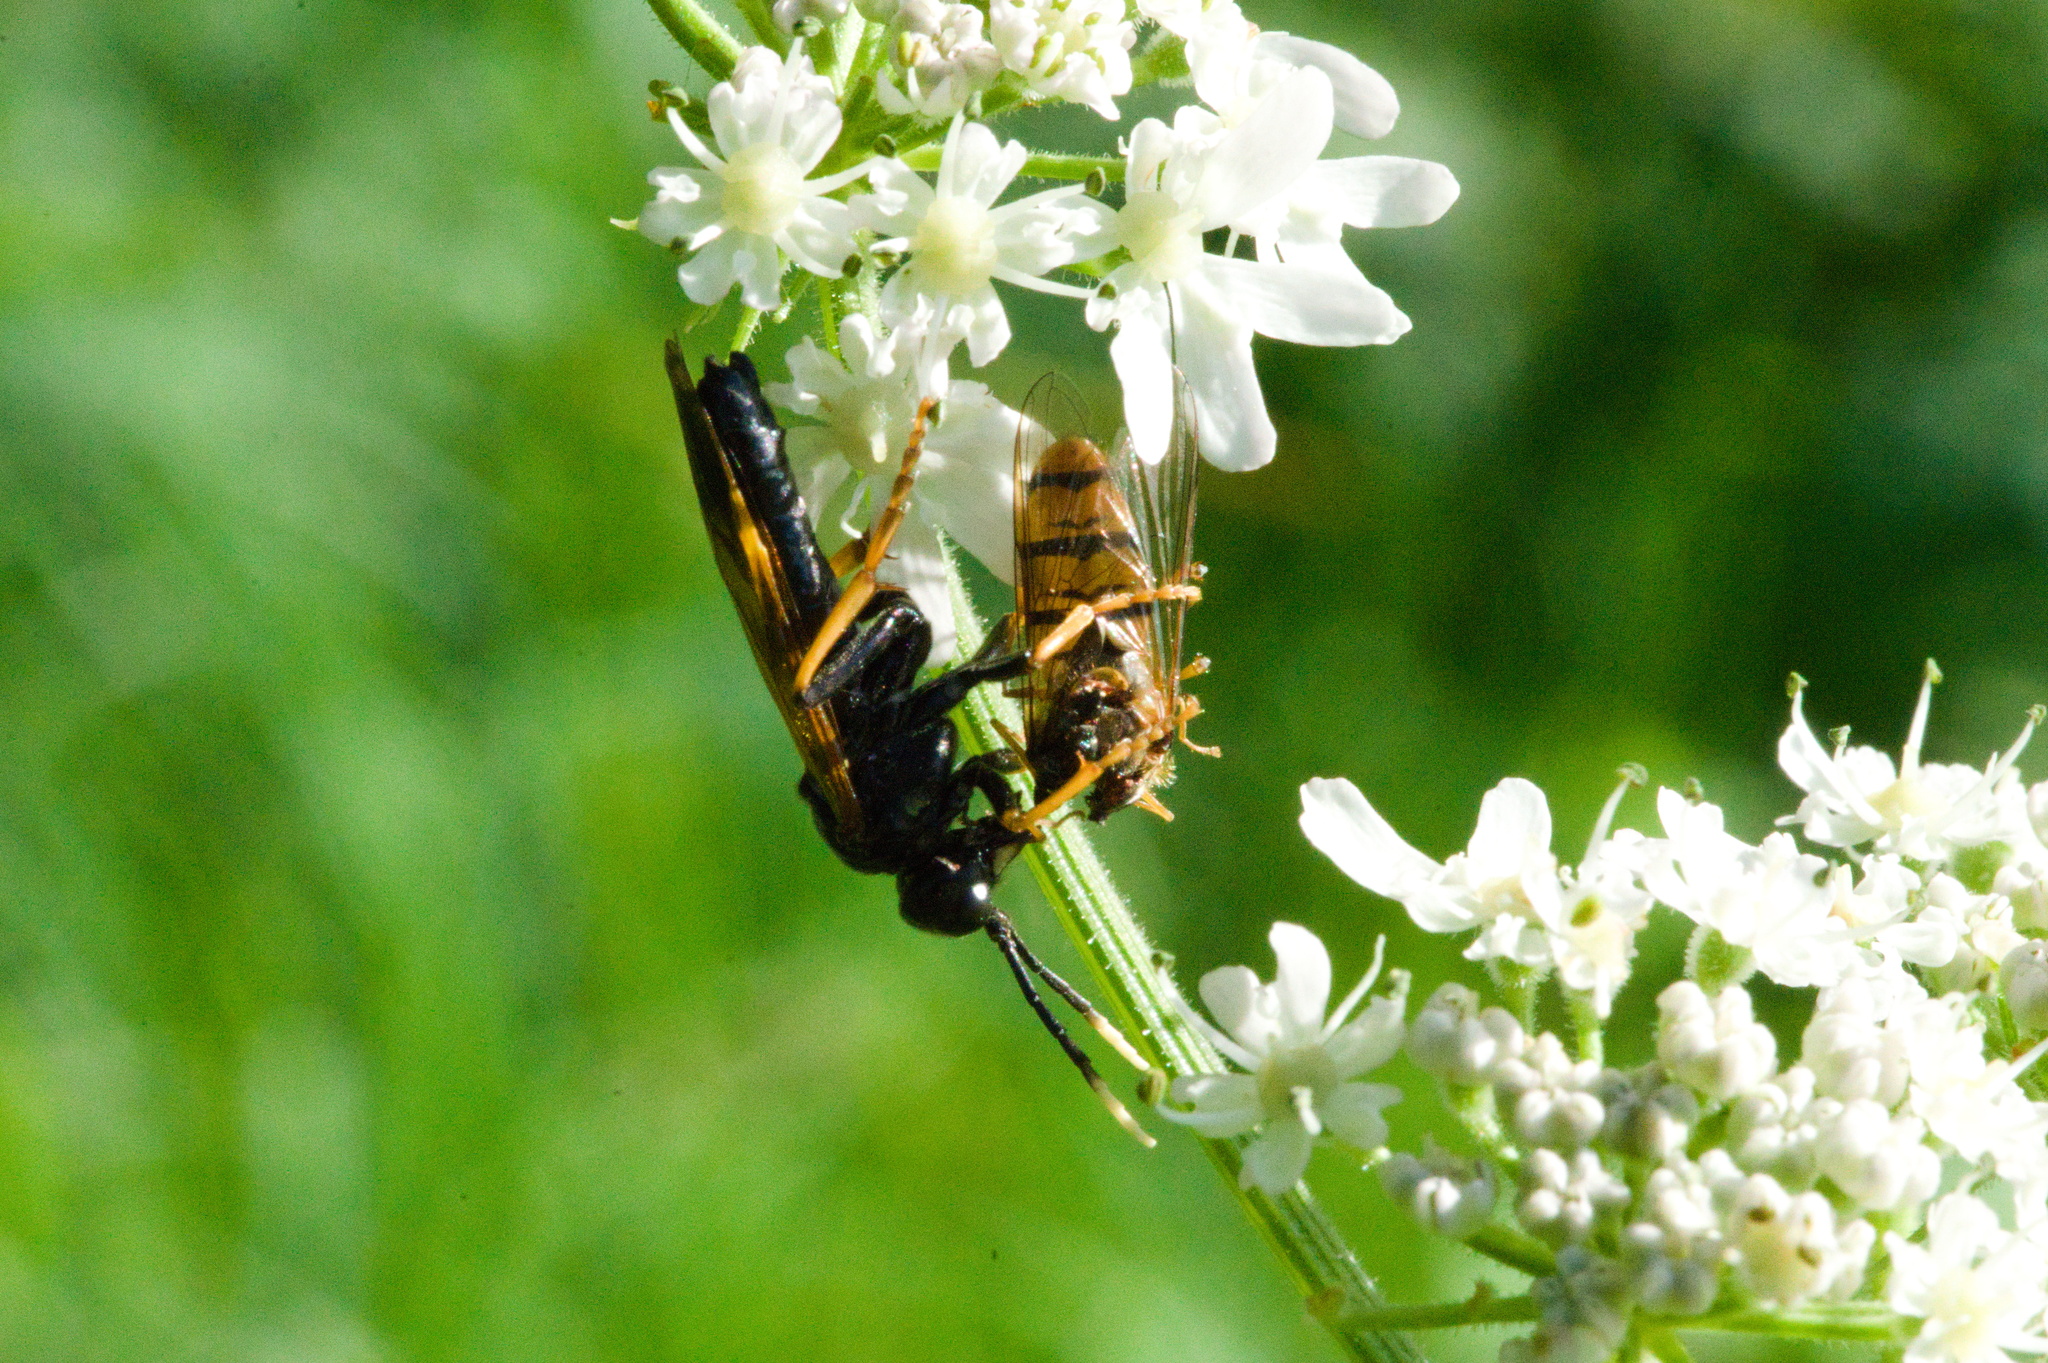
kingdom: Animalia
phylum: Arthropoda
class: Insecta
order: Hymenoptera
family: Tenthredinidae
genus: Tenthredo
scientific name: Tenthredo crassa
